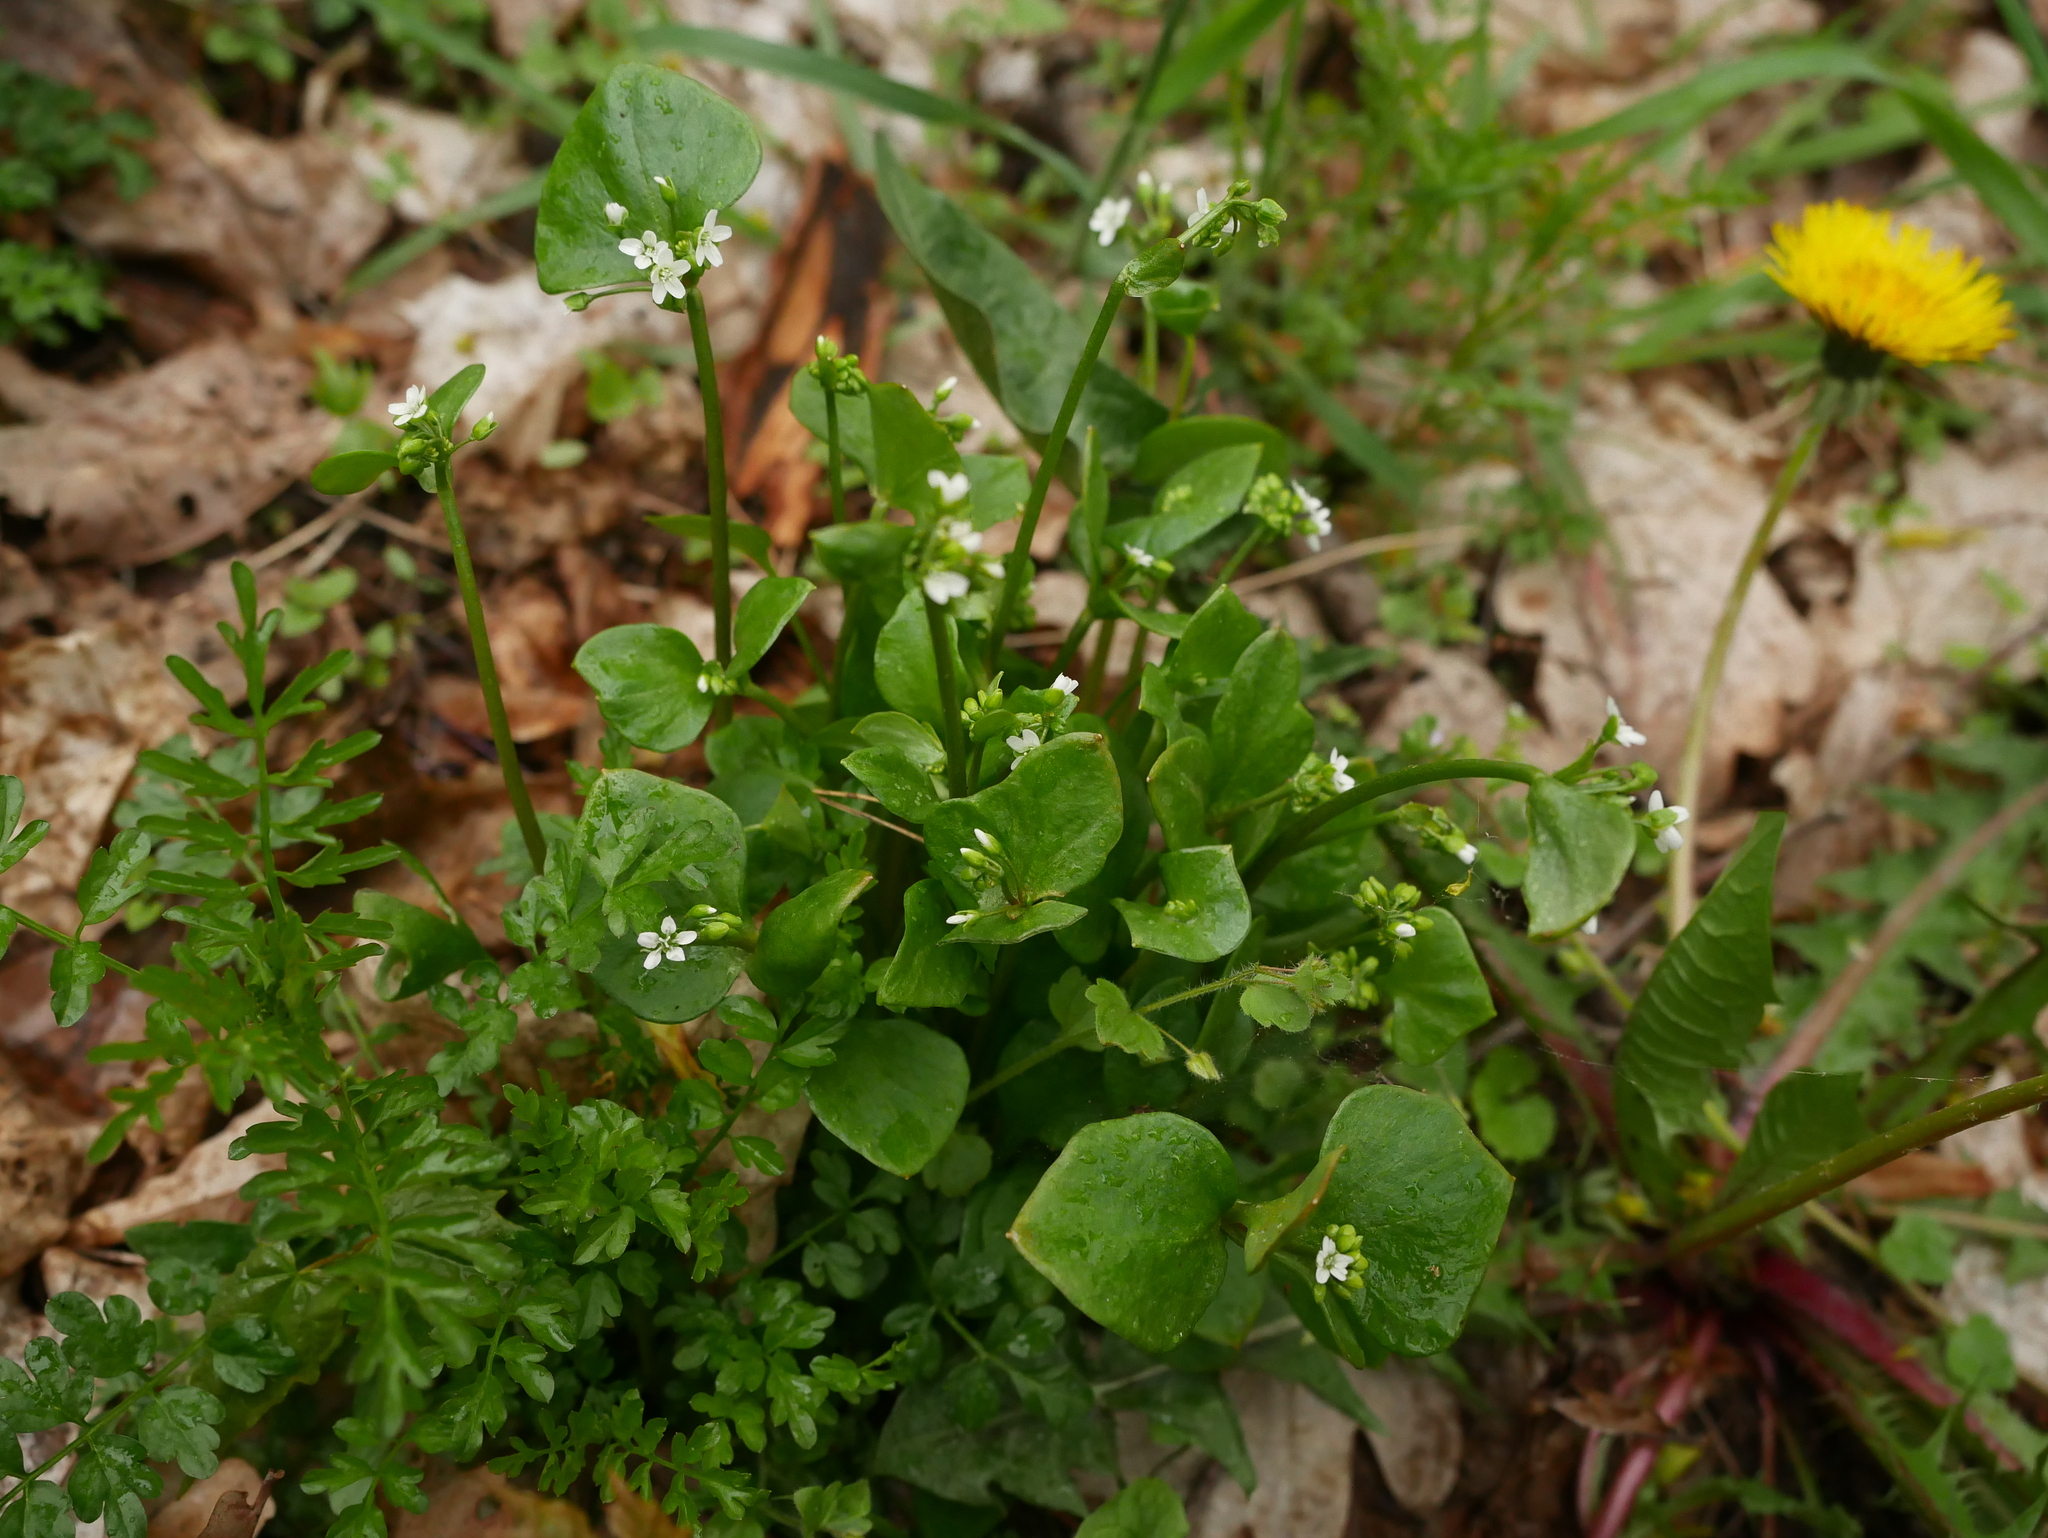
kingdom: Plantae
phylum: Tracheophyta
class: Magnoliopsida
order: Caryophyllales
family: Montiaceae
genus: Claytonia
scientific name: Claytonia perfoliata
